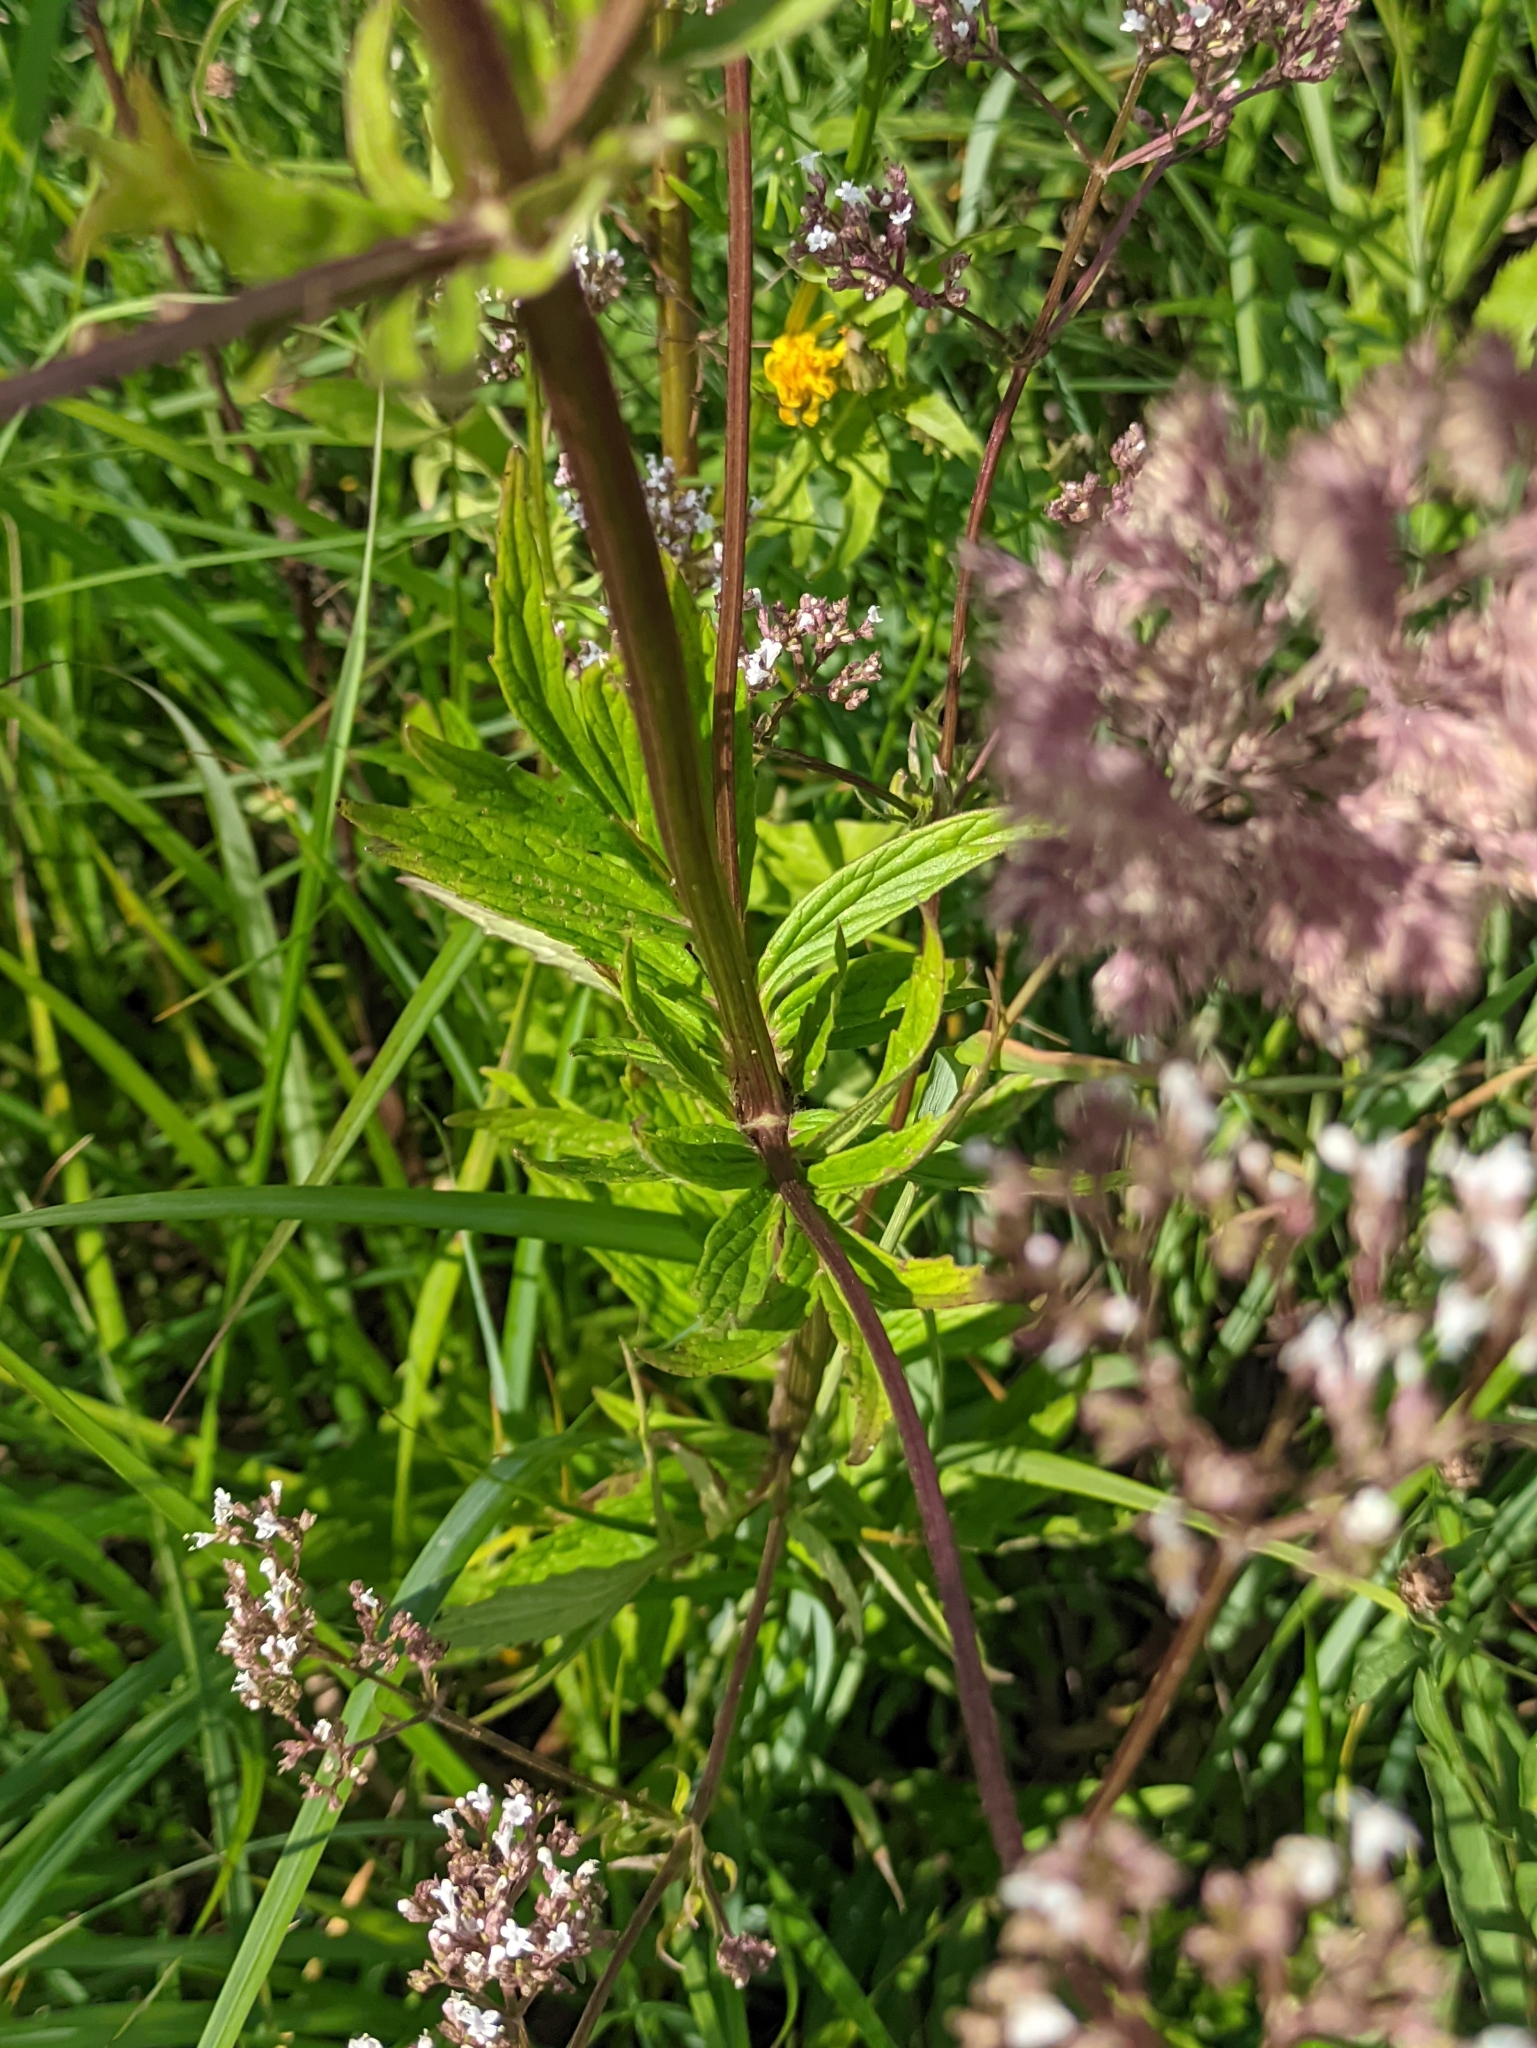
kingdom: Plantae
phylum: Tracheophyta
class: Magnoliopsida
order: Dipsacales
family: Caprifoliaceae
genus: Valeriana
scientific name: Valeriana officinalis
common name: Common valerian
